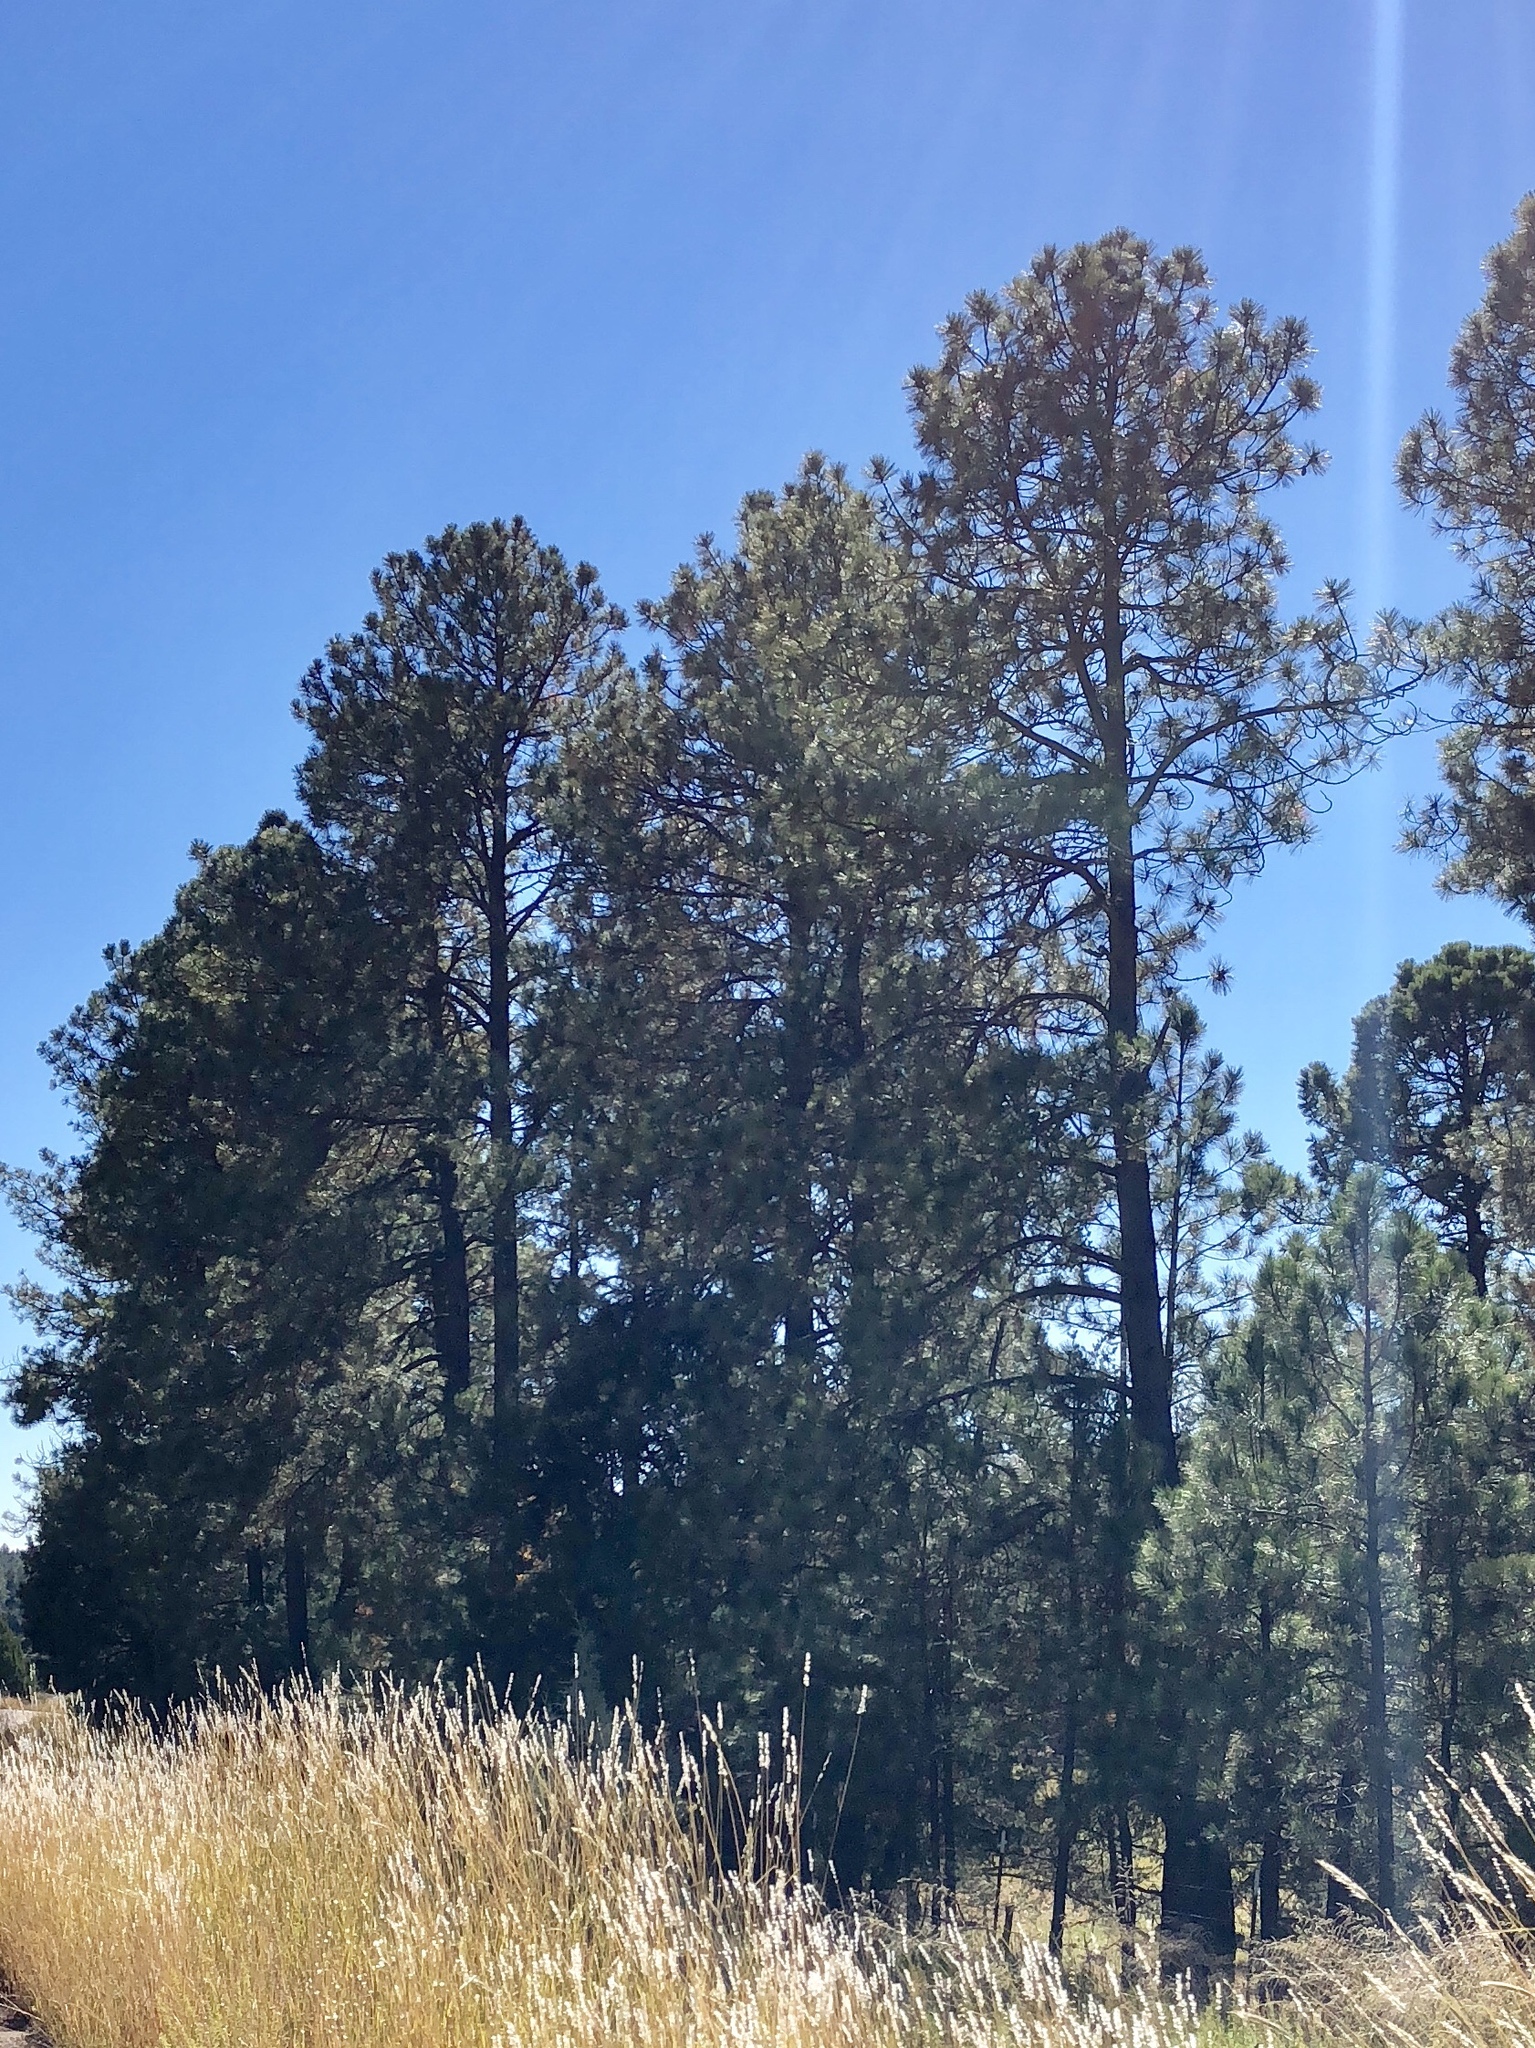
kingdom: Plantae
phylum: Tracheophyta
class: Pinopsida
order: Pinales
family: Pinaceae
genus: Pinus
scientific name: Pinus ponderosa
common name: Western yellow-pine
